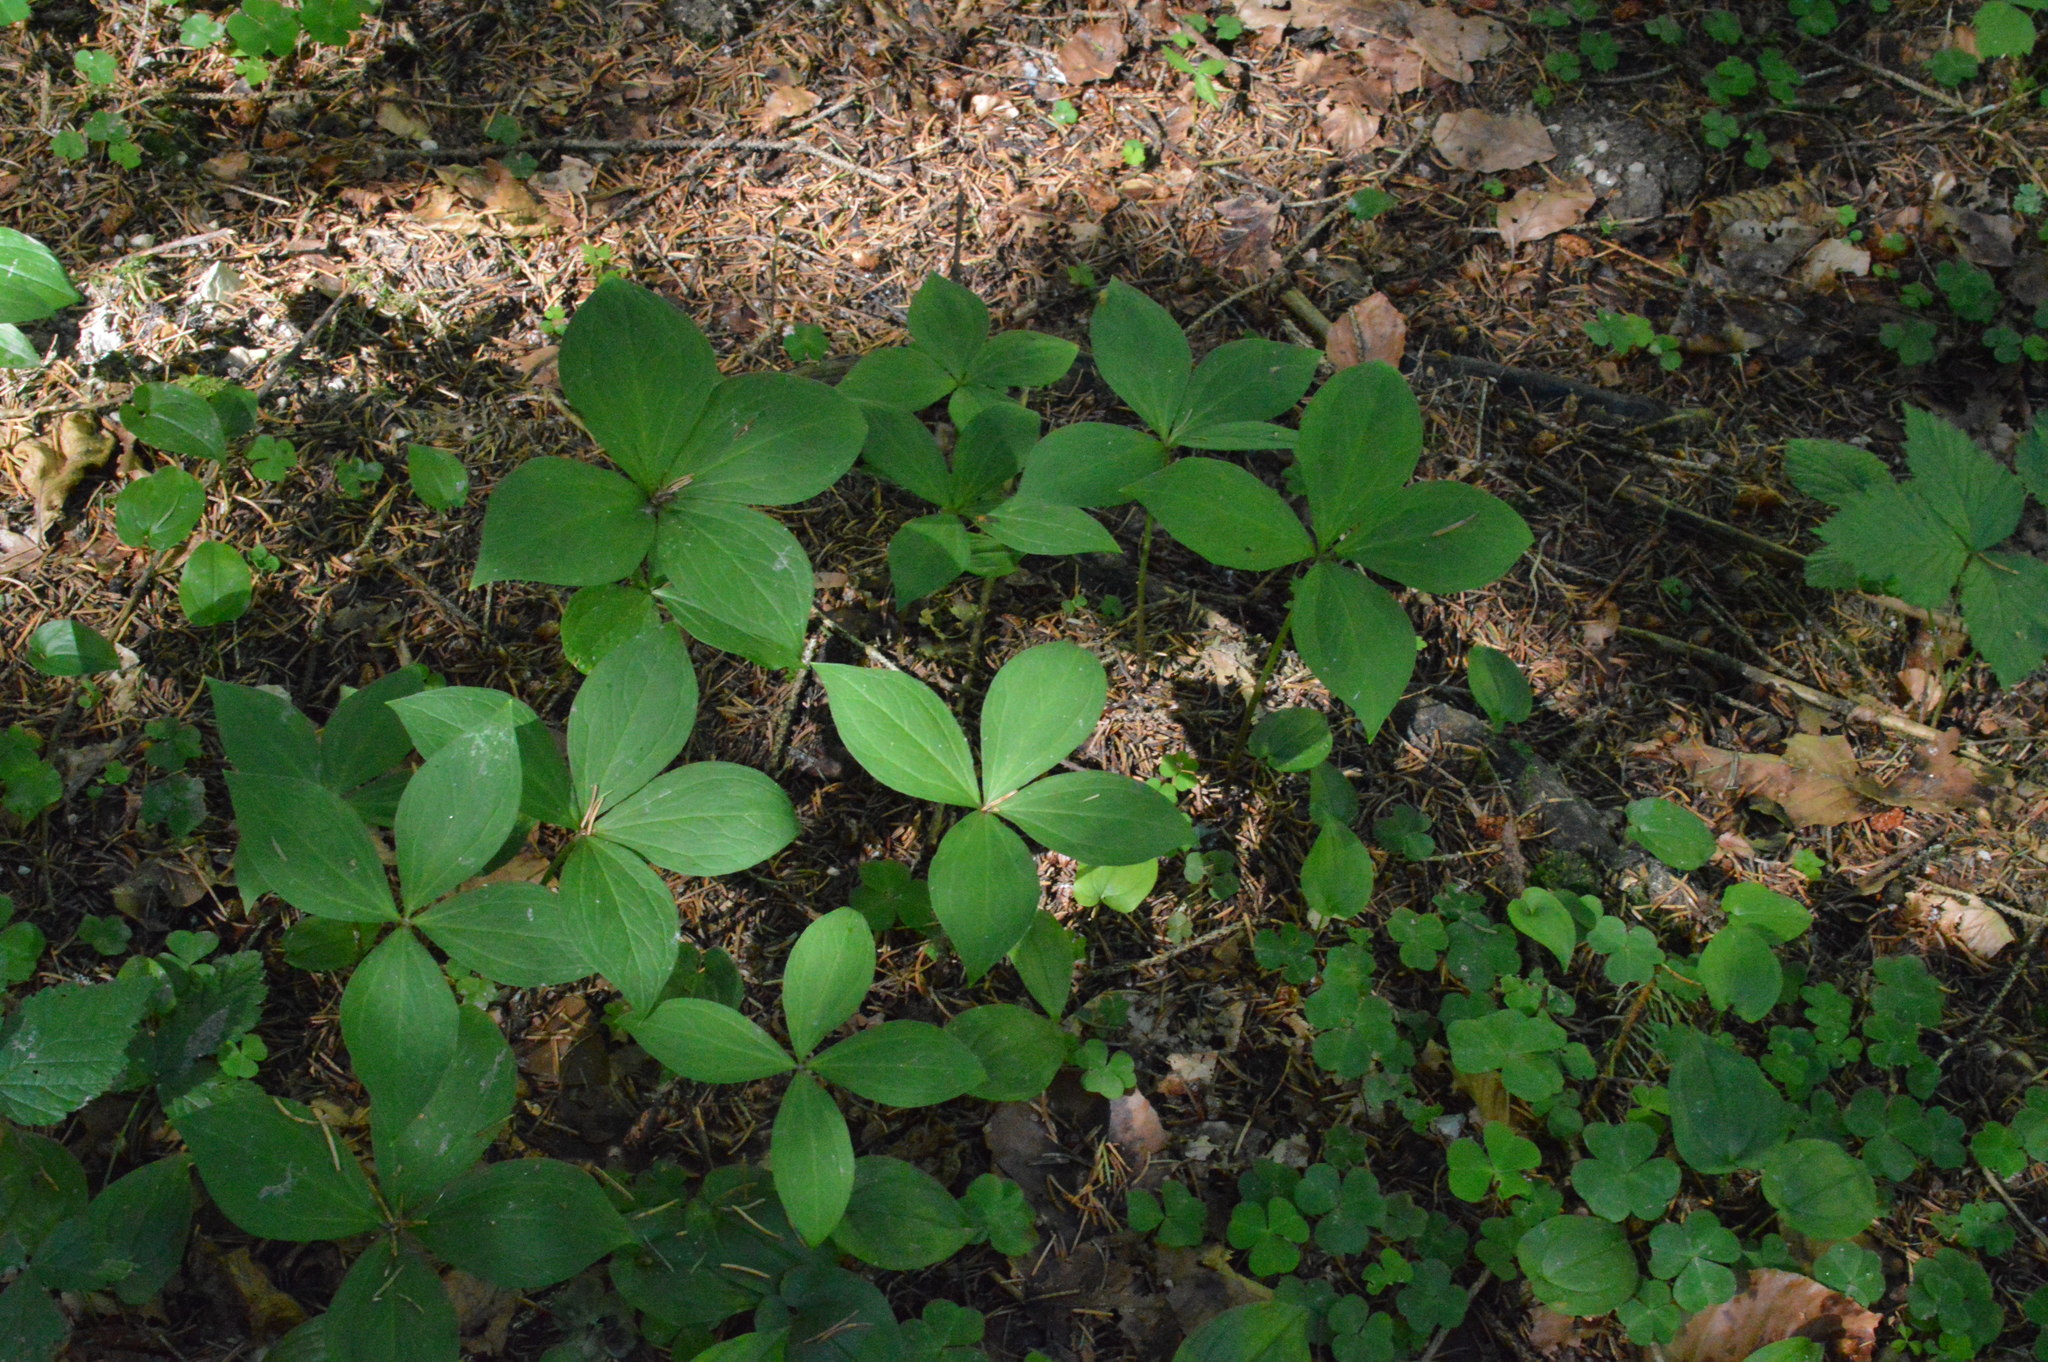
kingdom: Plantae
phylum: Tracheophyta
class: Liliopsida
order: Liliales
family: Melanthiaceae
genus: Paris
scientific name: Paris quadrifolia
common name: Herb-paris
